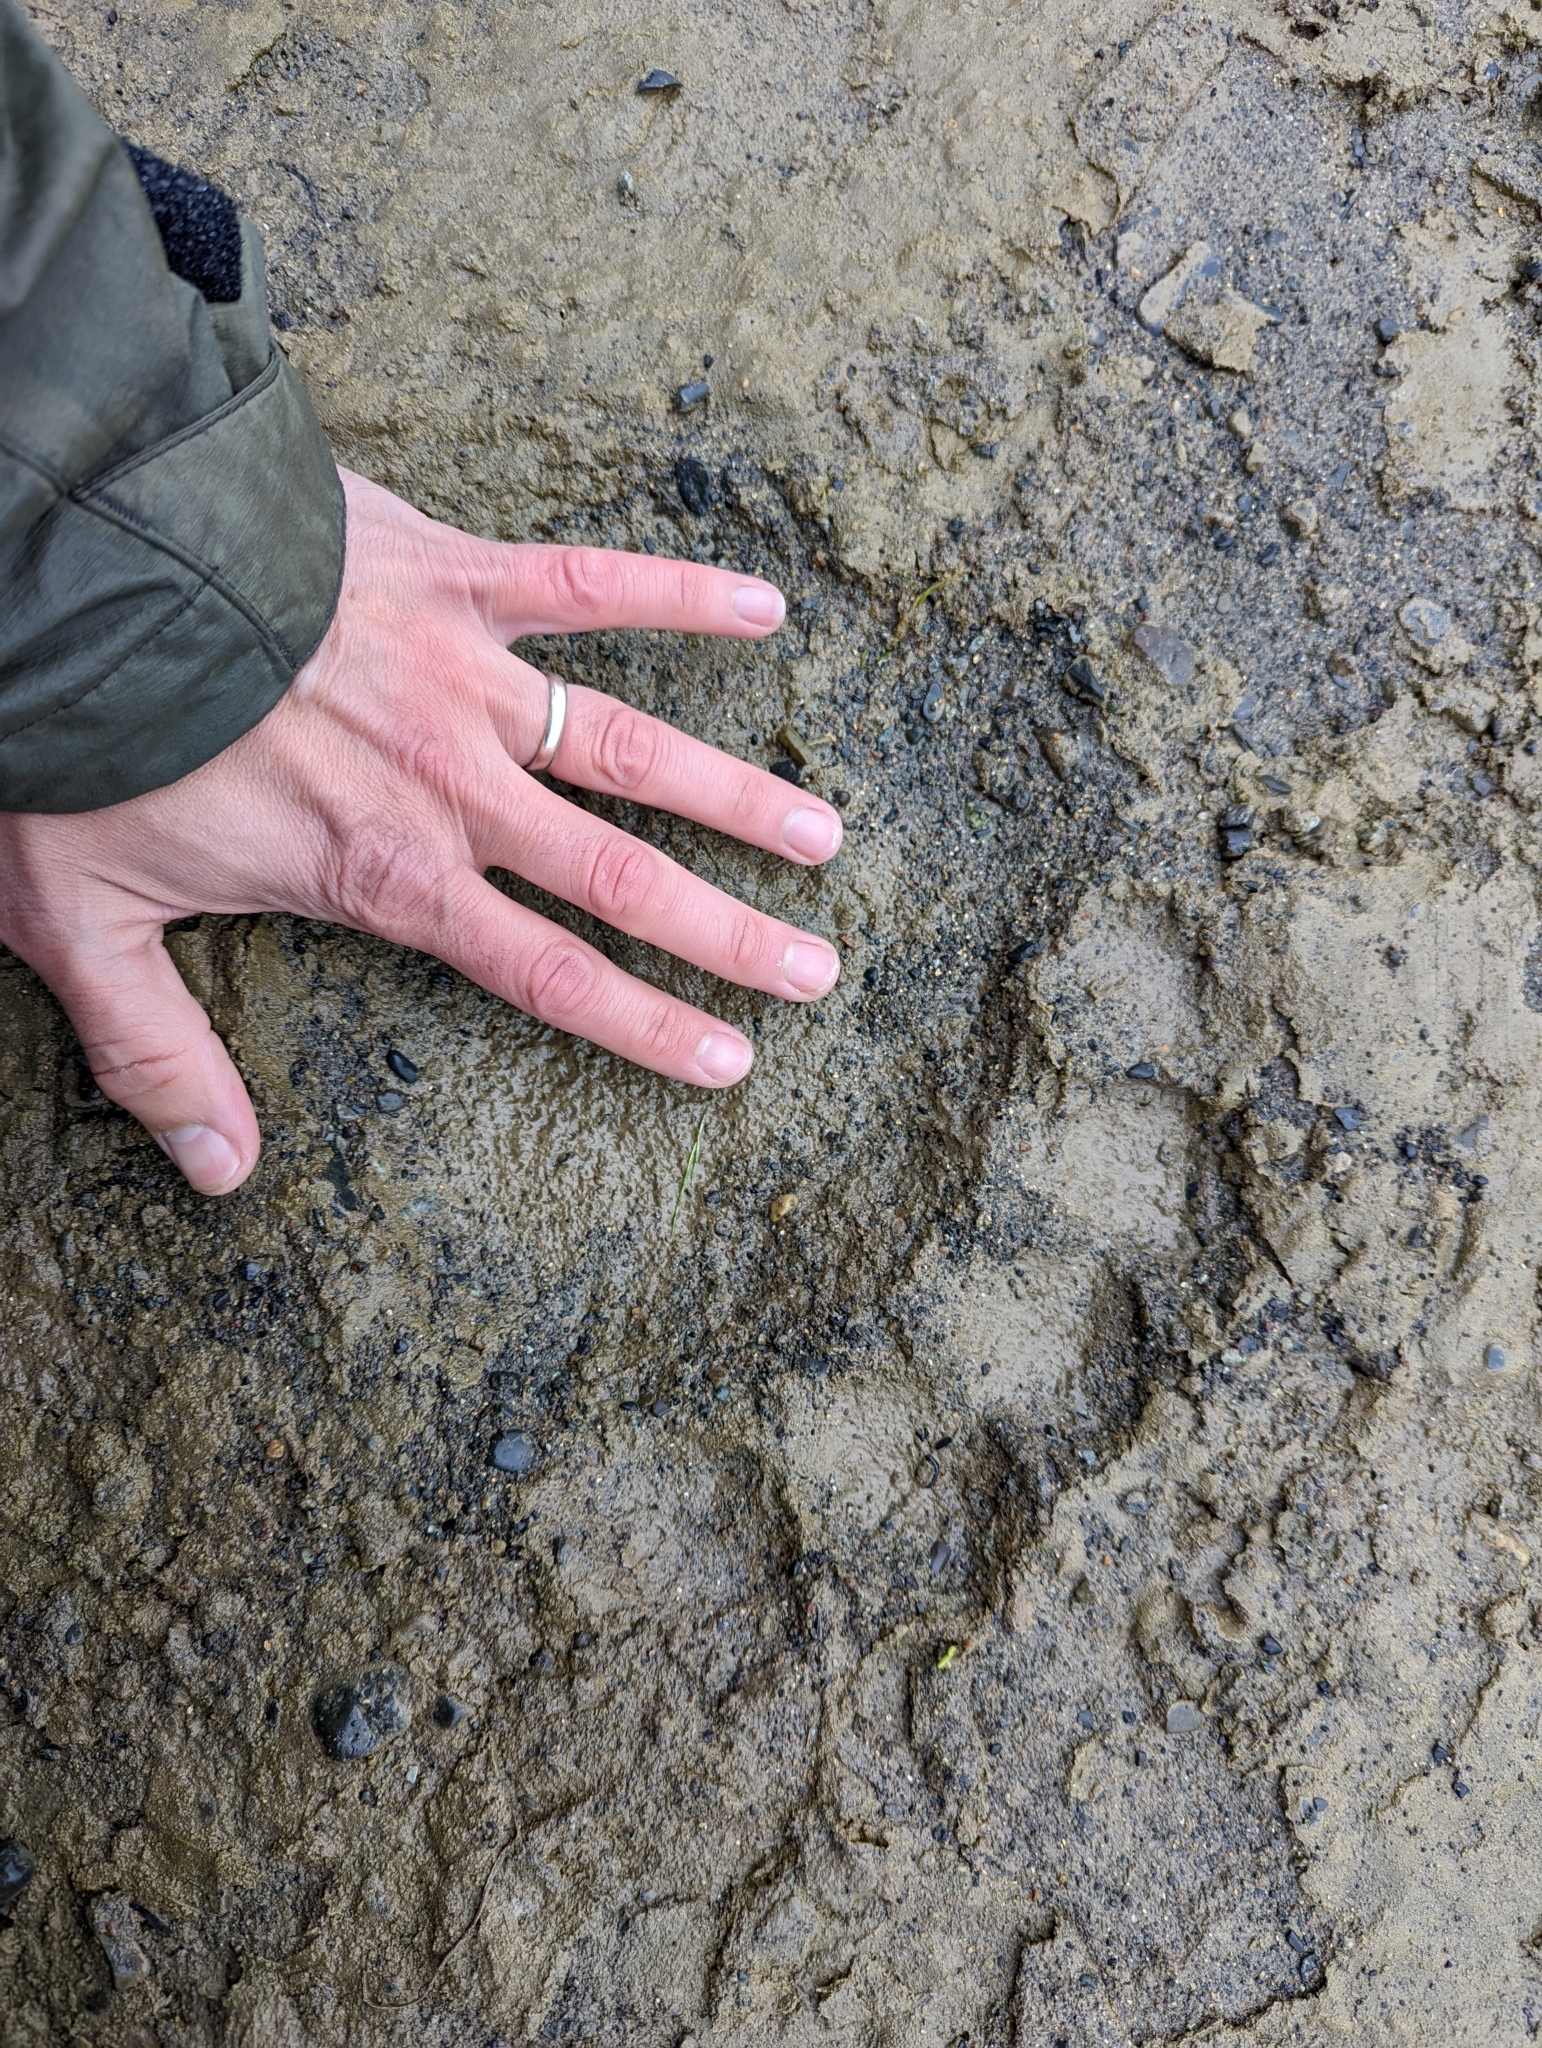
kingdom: Animalia
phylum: Chordata
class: Mammalia
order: Carnivora
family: Ursidae
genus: Ursus
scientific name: Ursus arctos
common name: Brown bear
